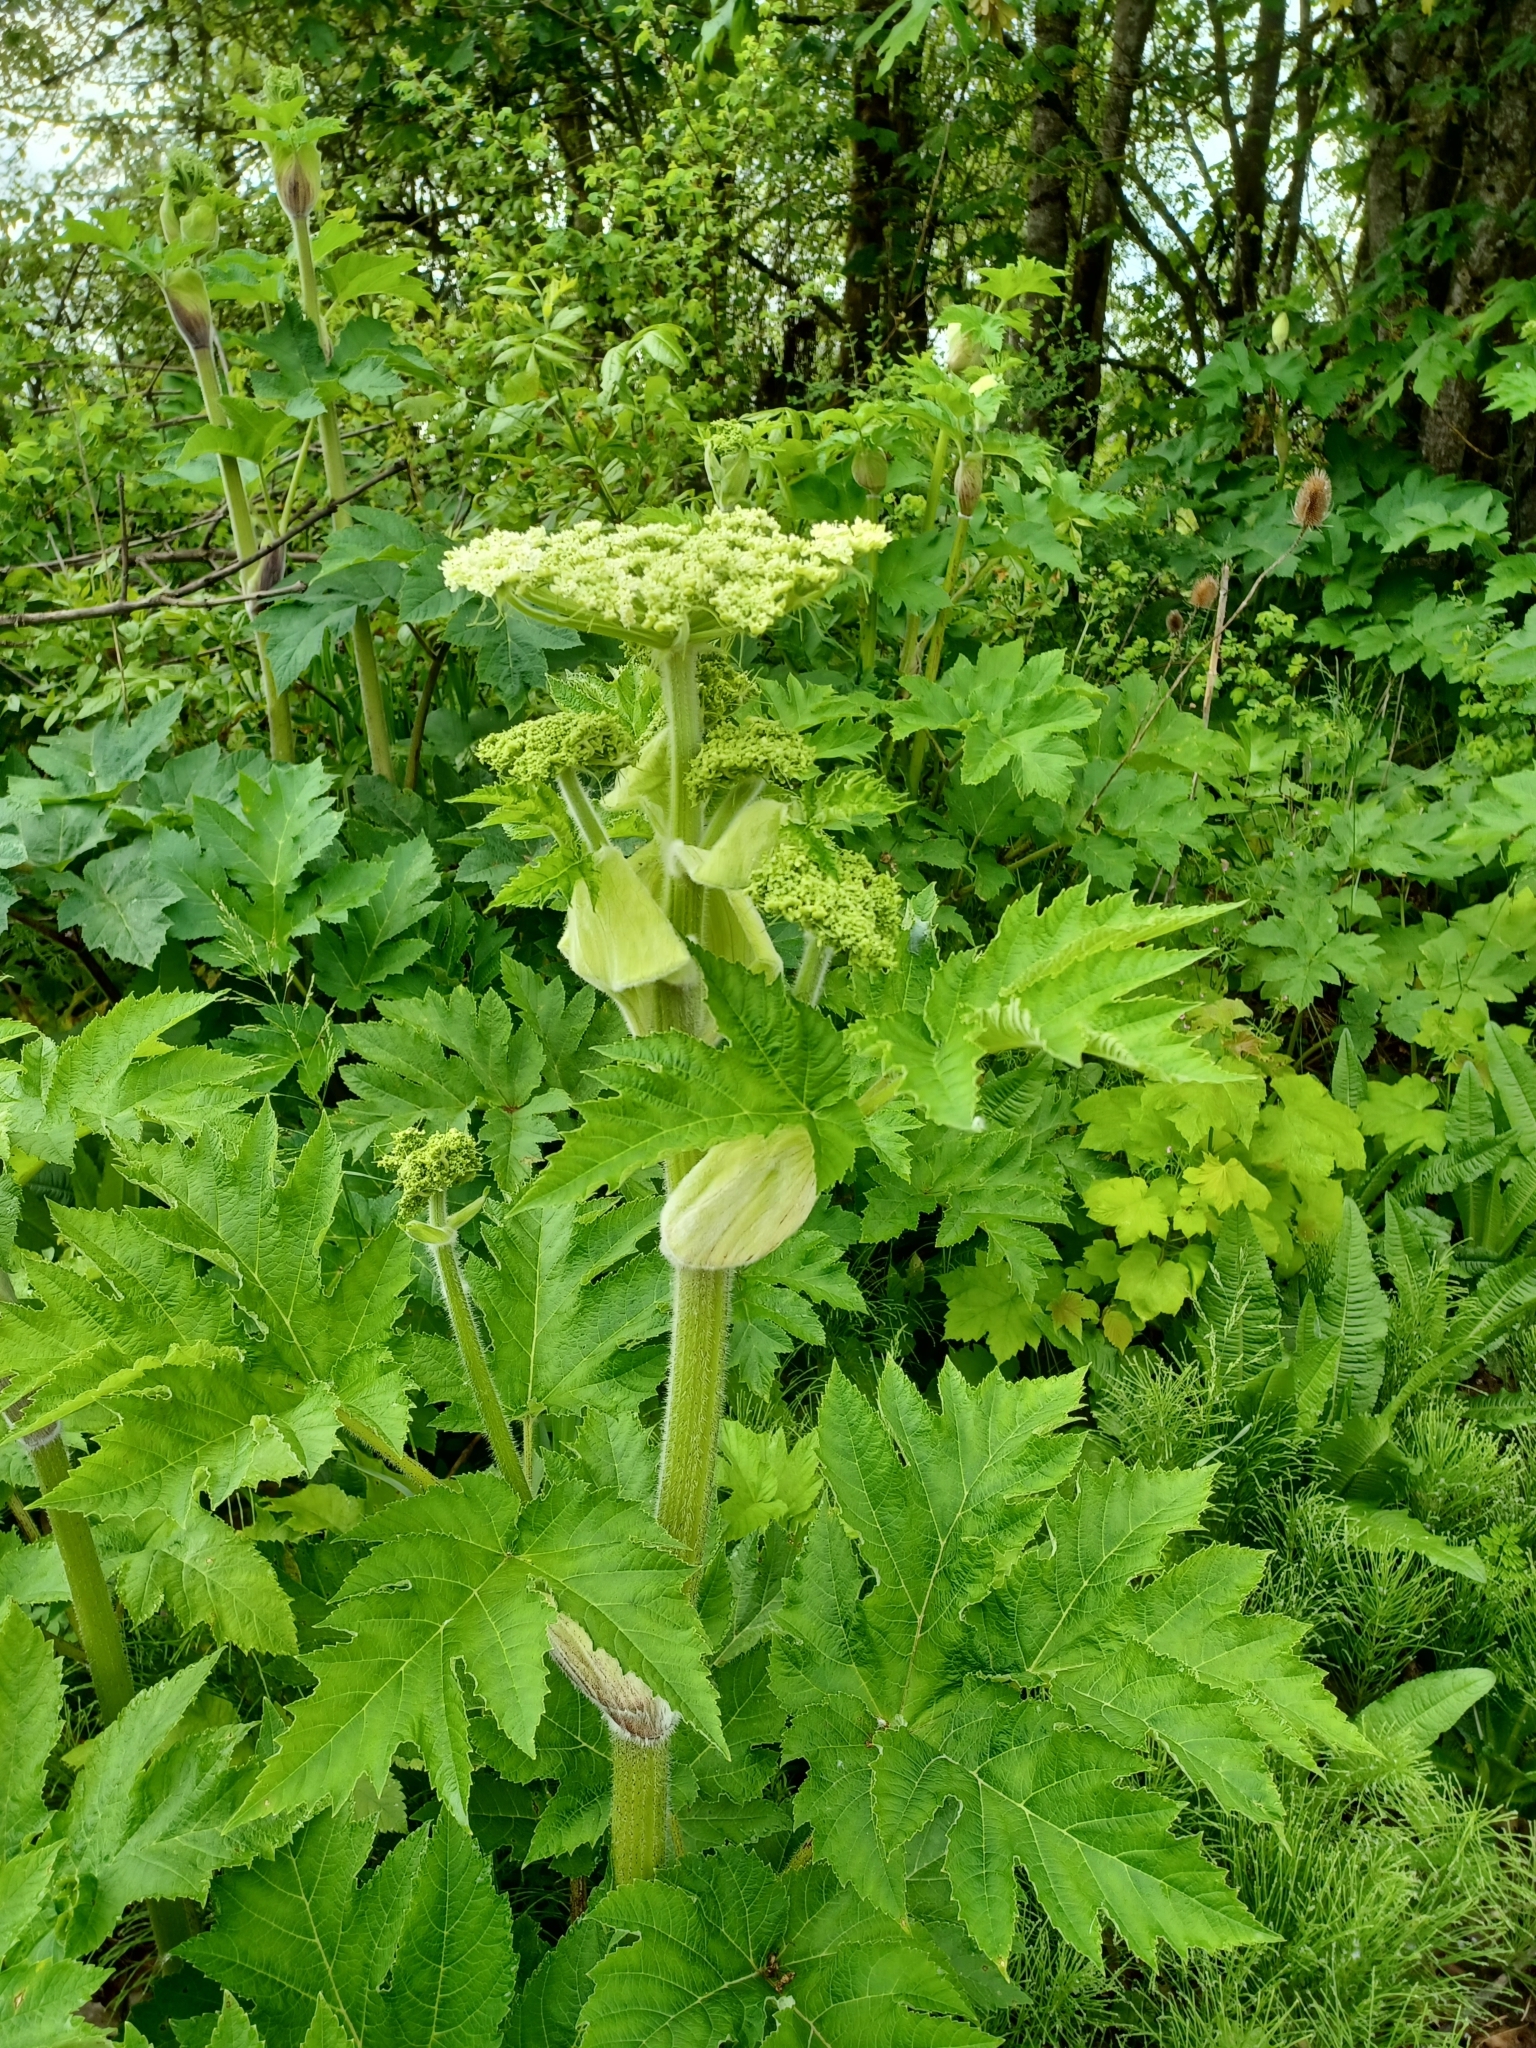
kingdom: Plantae
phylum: Tracheophyta
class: Magnoliopsida
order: Apiales
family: Apiaceae
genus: Heracleum
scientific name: Heracleum maximum
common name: American cow parsnip
